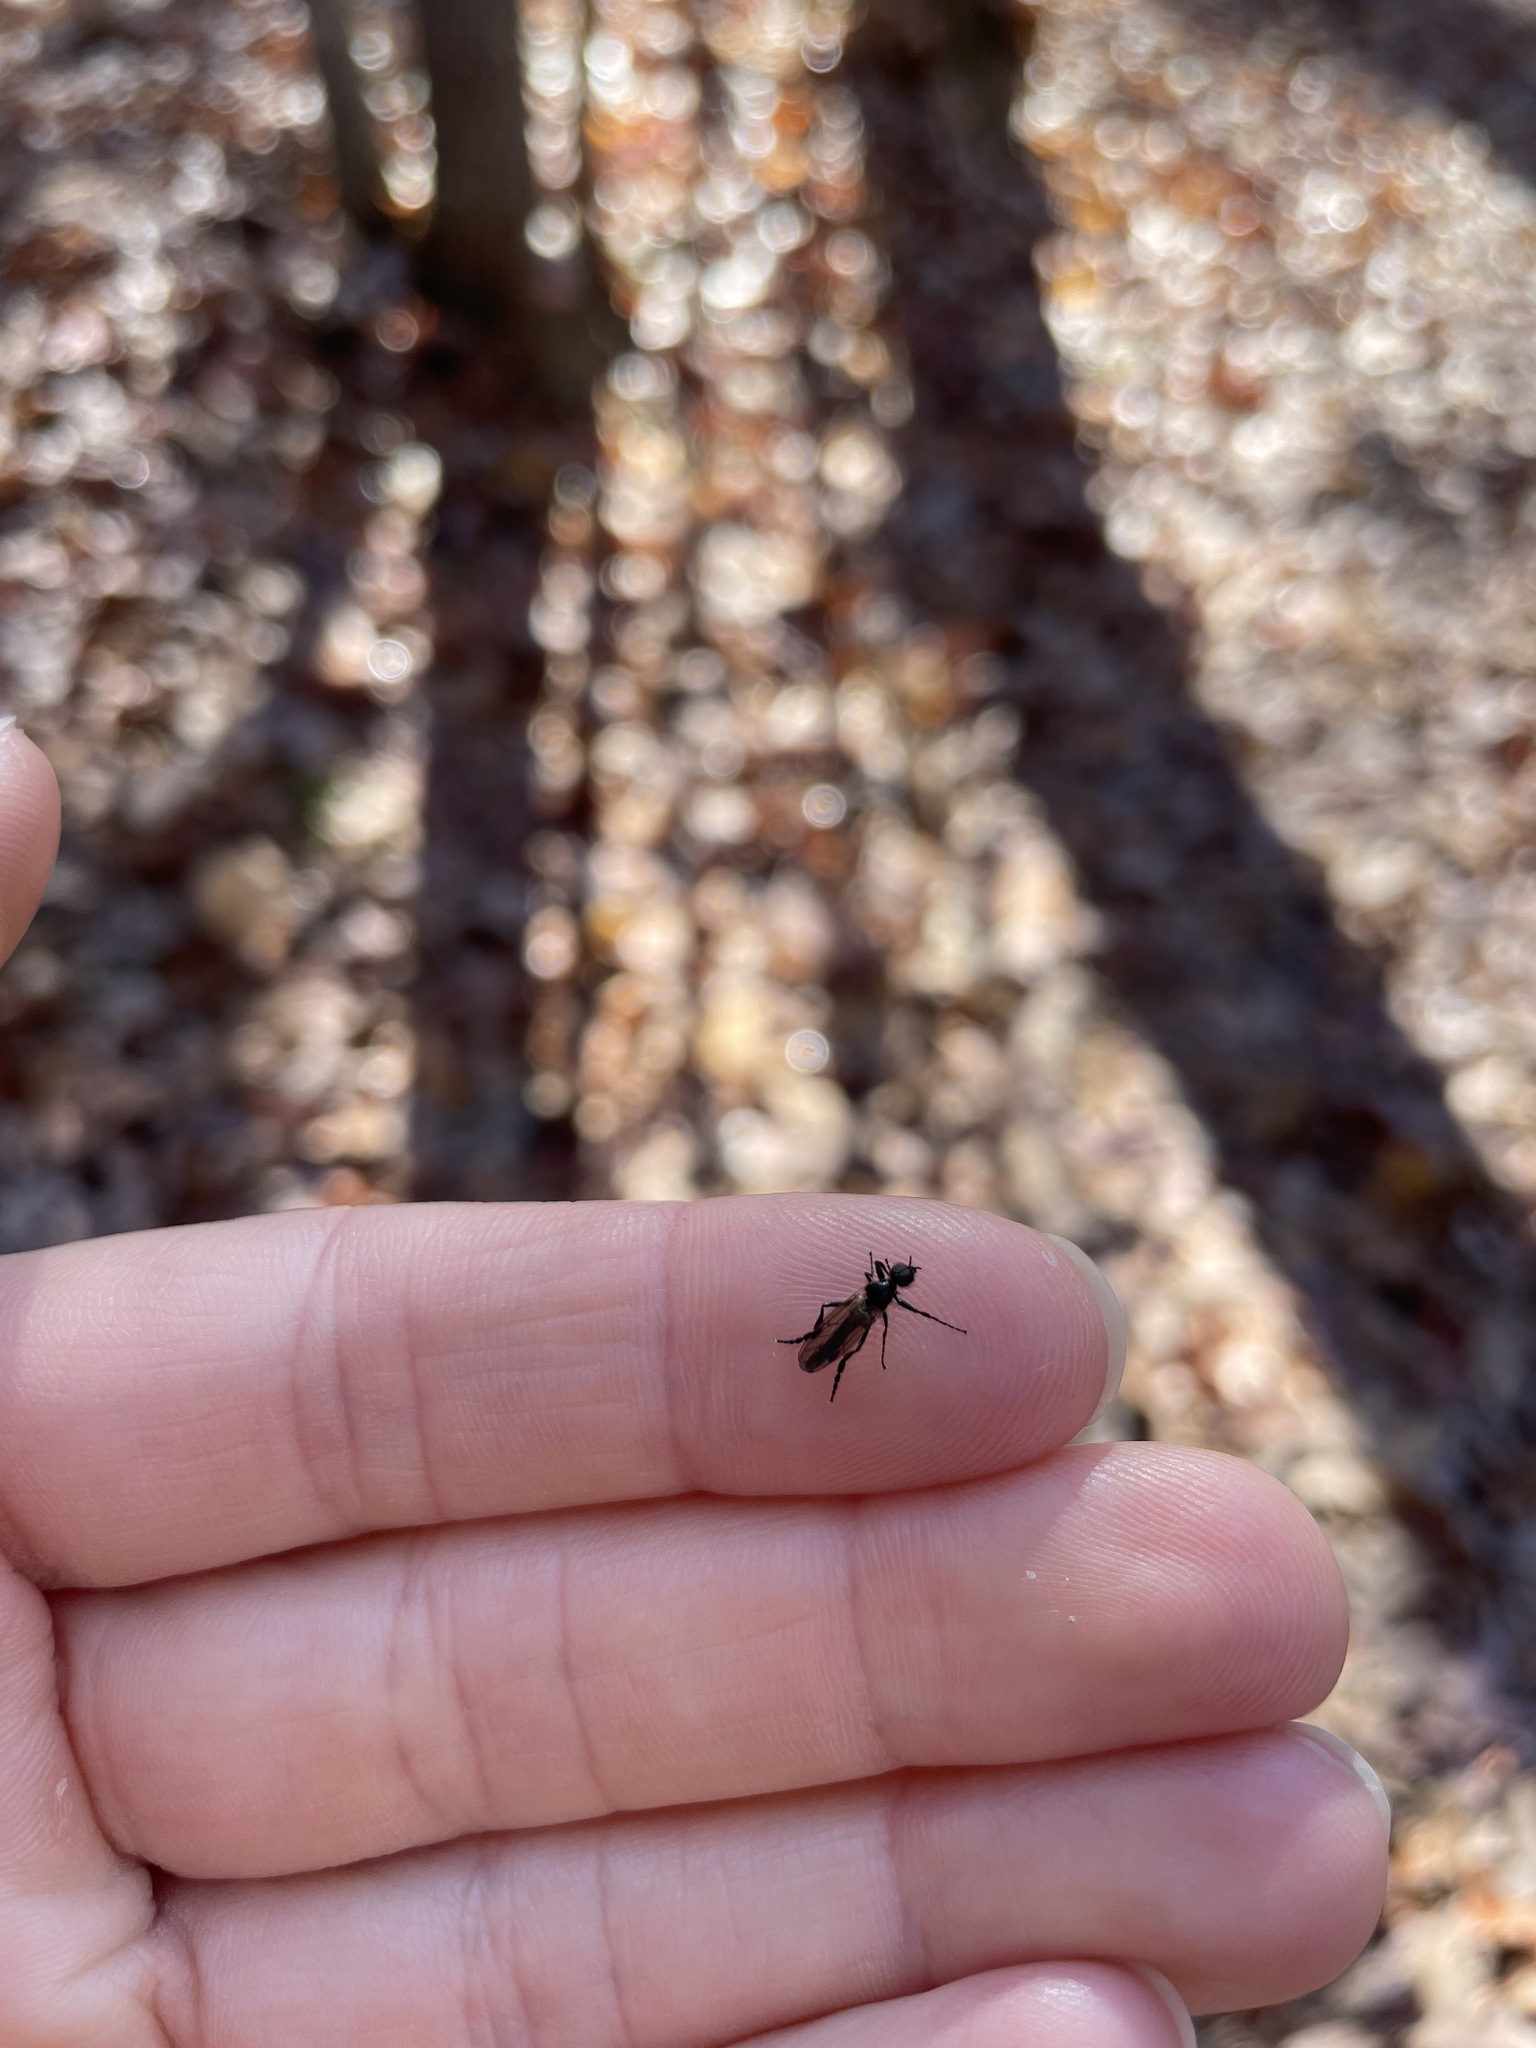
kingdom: Animalia
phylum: Arthropoda
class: Insecta
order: Diptera
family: Bibionidae
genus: Bibio
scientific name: Bibio longipes
